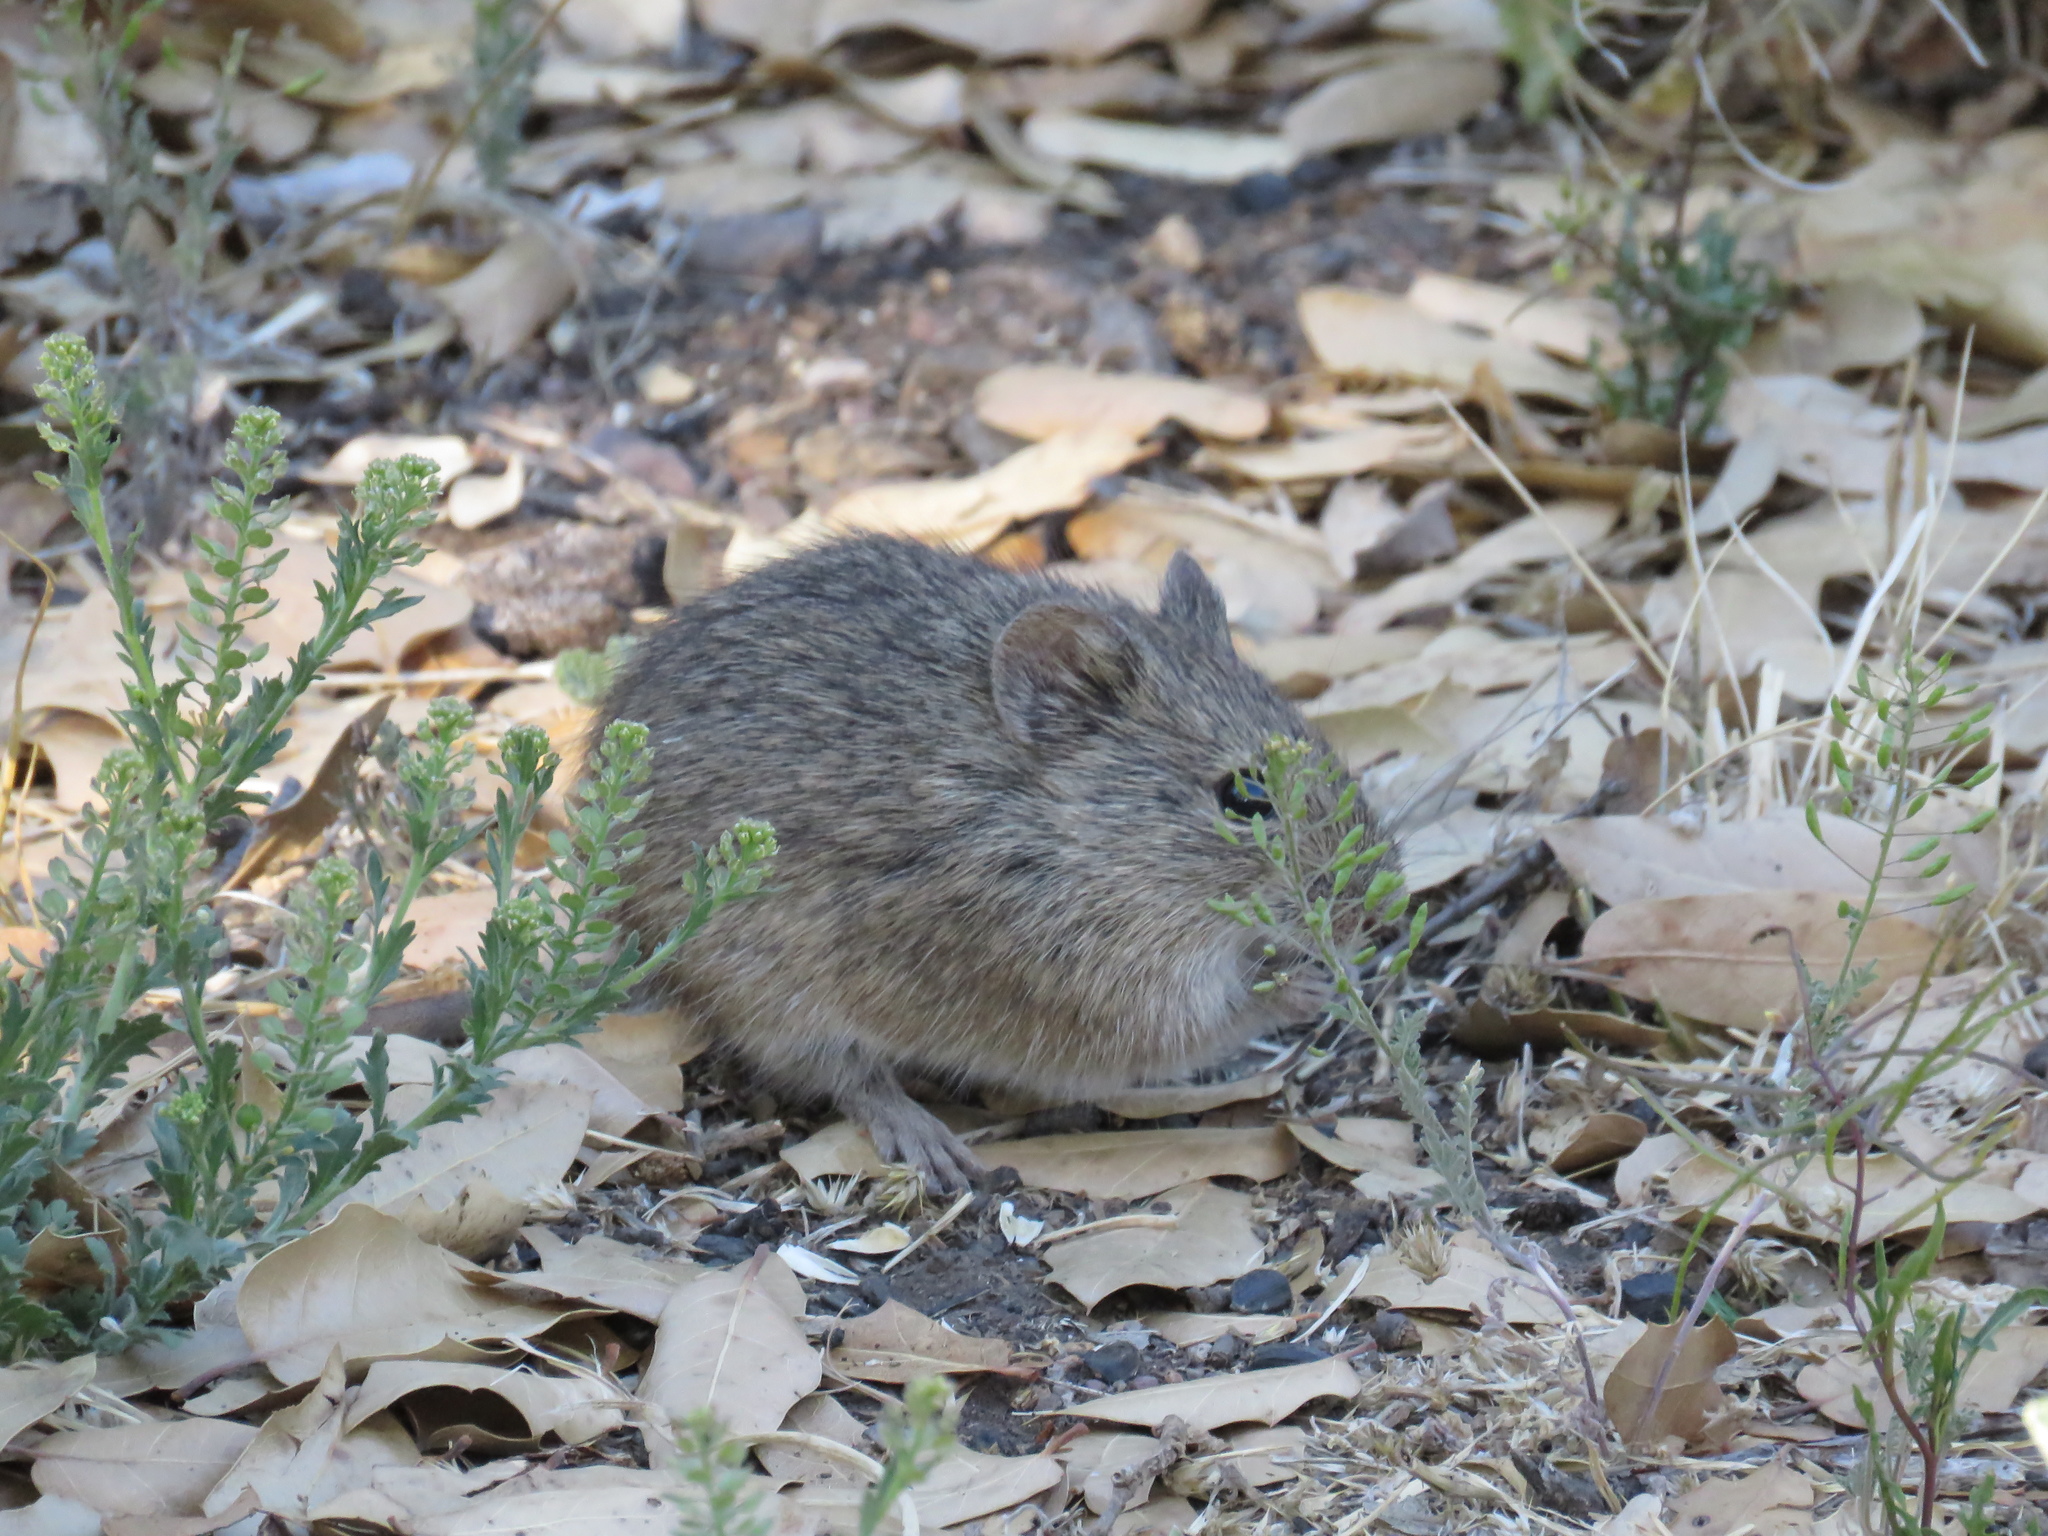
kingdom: Animalia
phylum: Chordata
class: Mammalia
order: Rodentia
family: Cricetidae
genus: Sigmodon
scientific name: Sigmodon hispidus
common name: Hispid cotton rat
